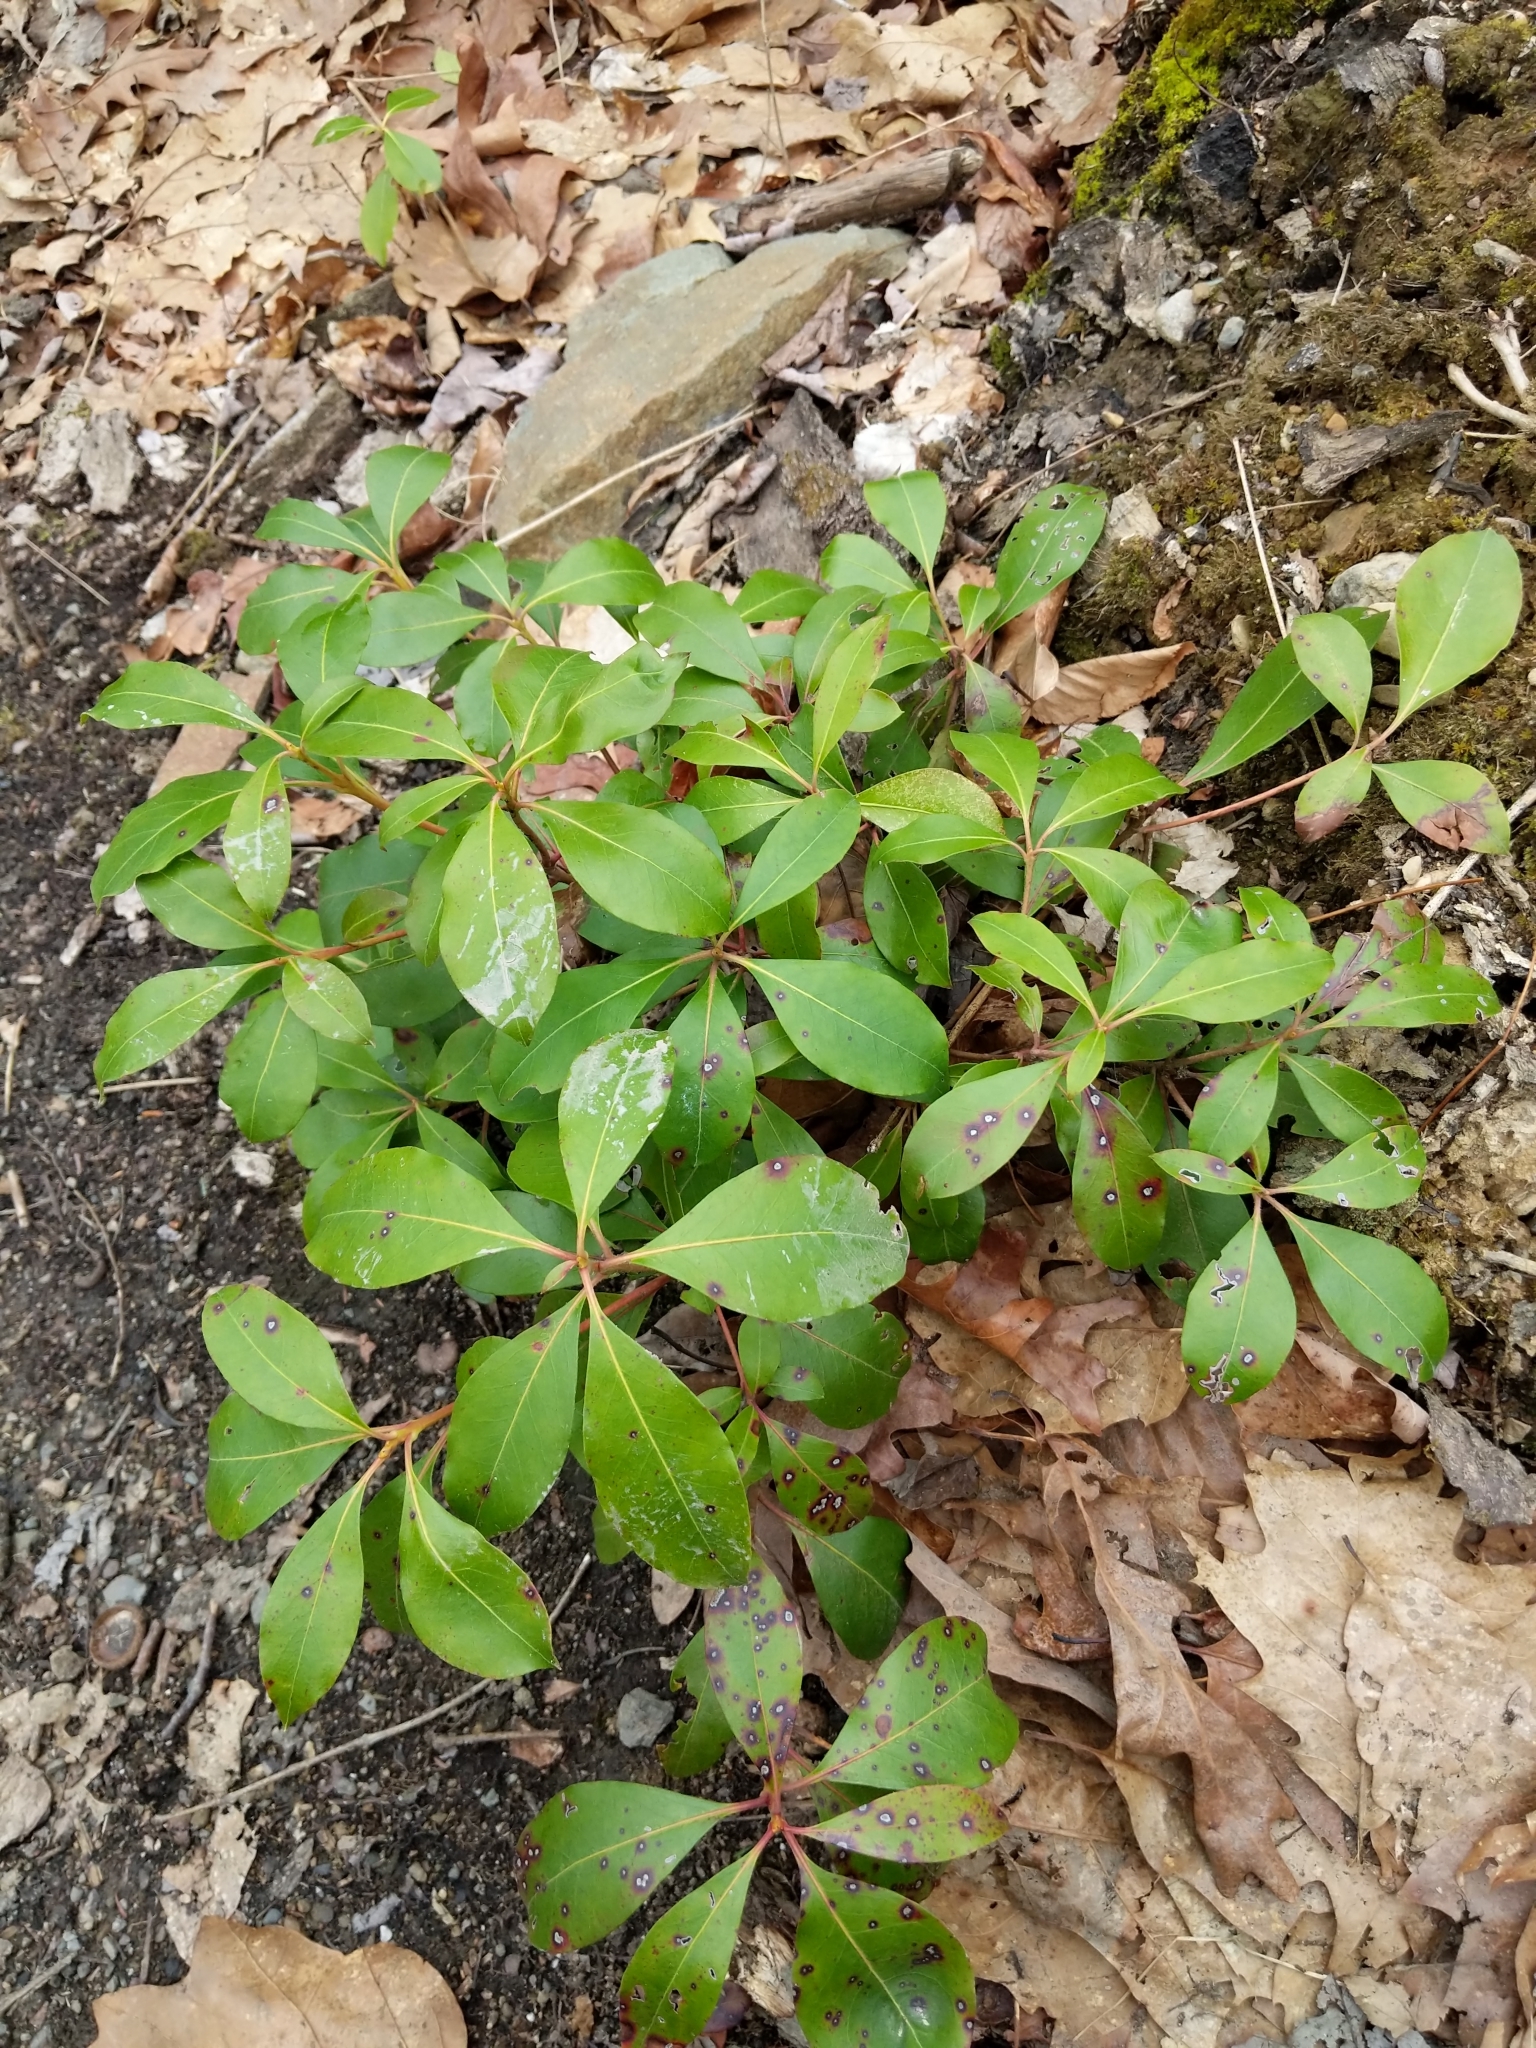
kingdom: Plantae
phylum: Tracheophyta
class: Magnoliopsida
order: Ericales
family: Ericaceae
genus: Kalmia
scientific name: Kalmia latifolia
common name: Mountain-laurel
